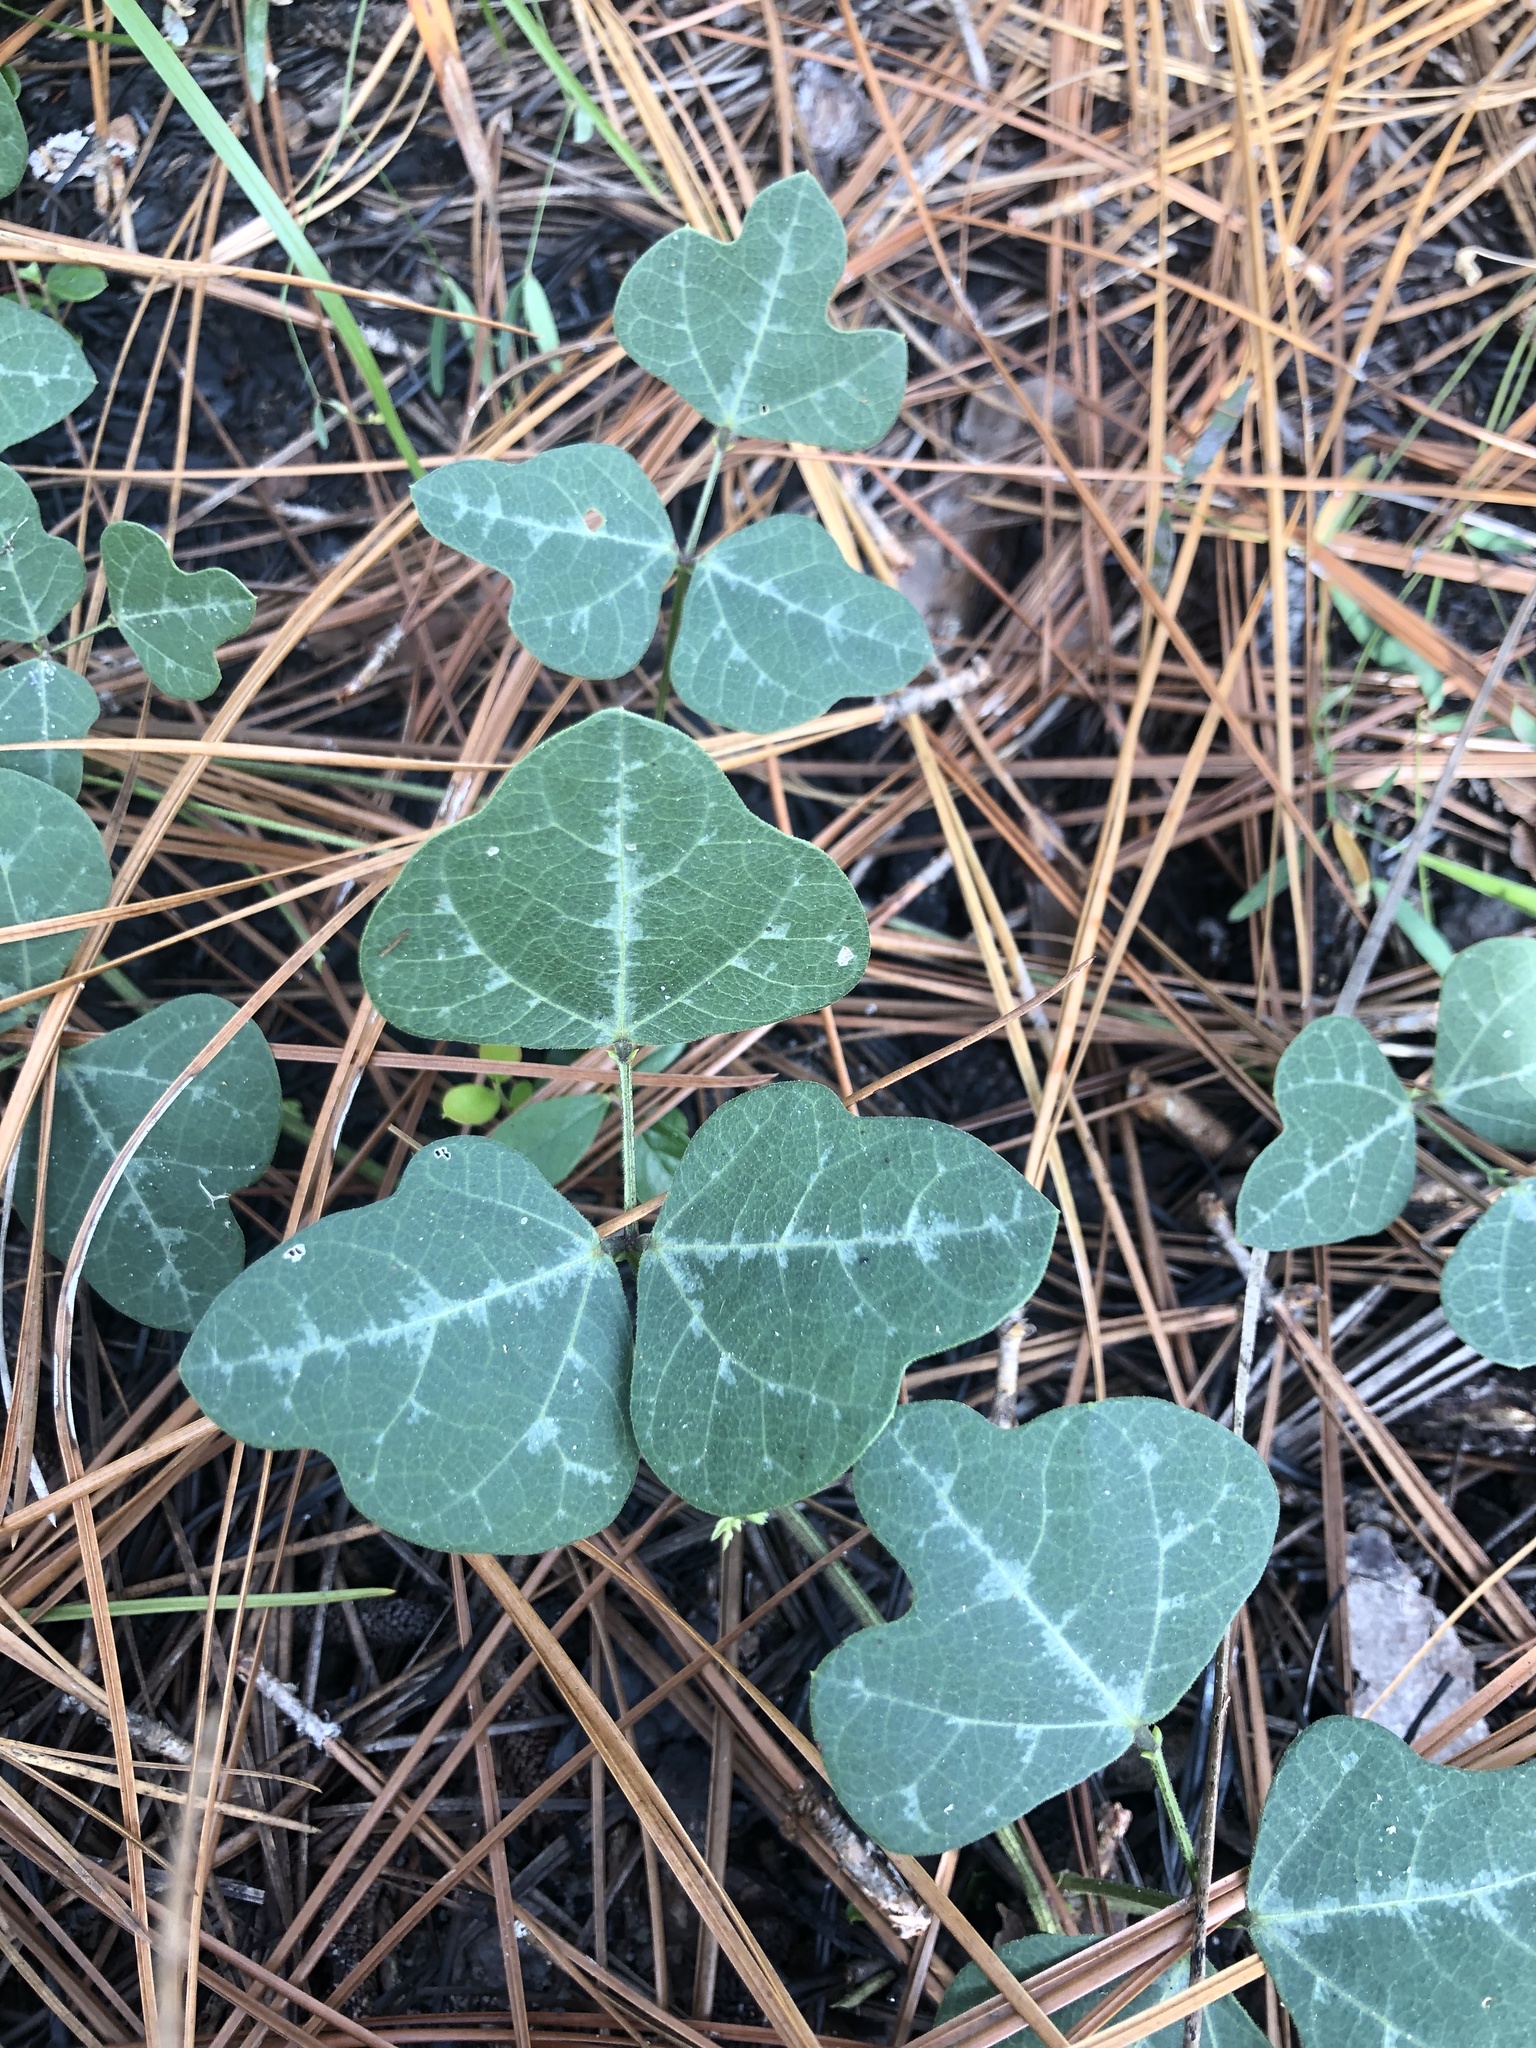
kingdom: Plantae
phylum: Tracheophyta
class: Magnoliopsida
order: Fabales
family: Fabaceae
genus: Phaseolus
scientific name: Phaseolus sinuatus
